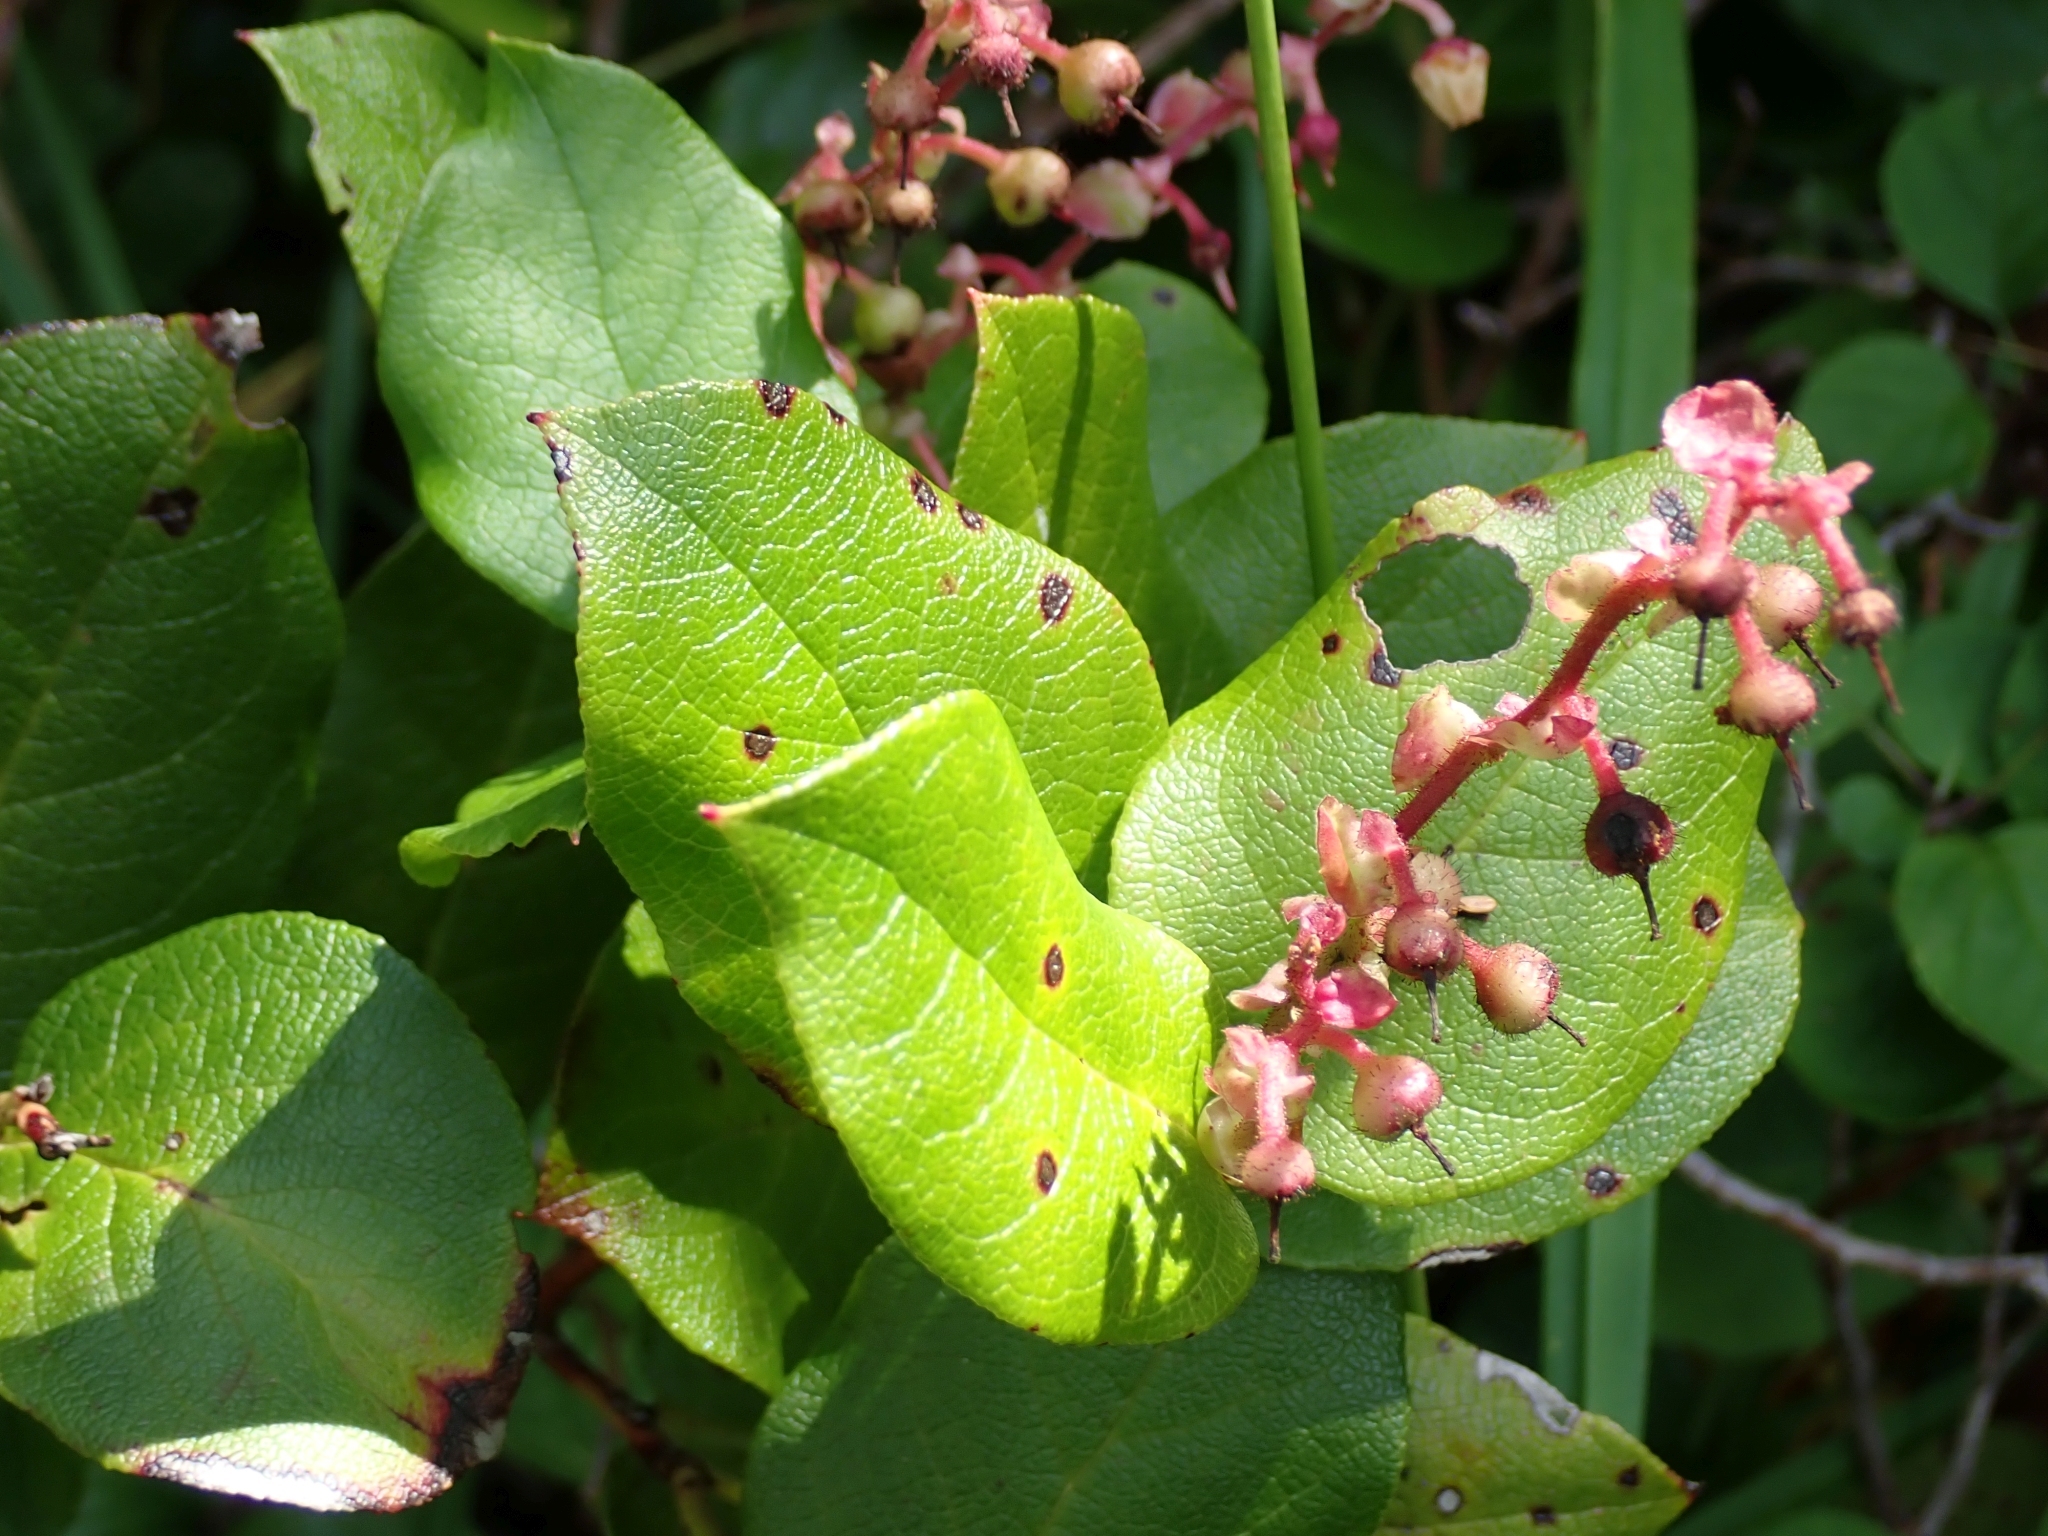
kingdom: Plantae
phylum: Tracheophyta
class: Magnoliopsida
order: Ericales
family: Ericaceae
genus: Gaultheria
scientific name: Gaultheria shallon
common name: Shallon
